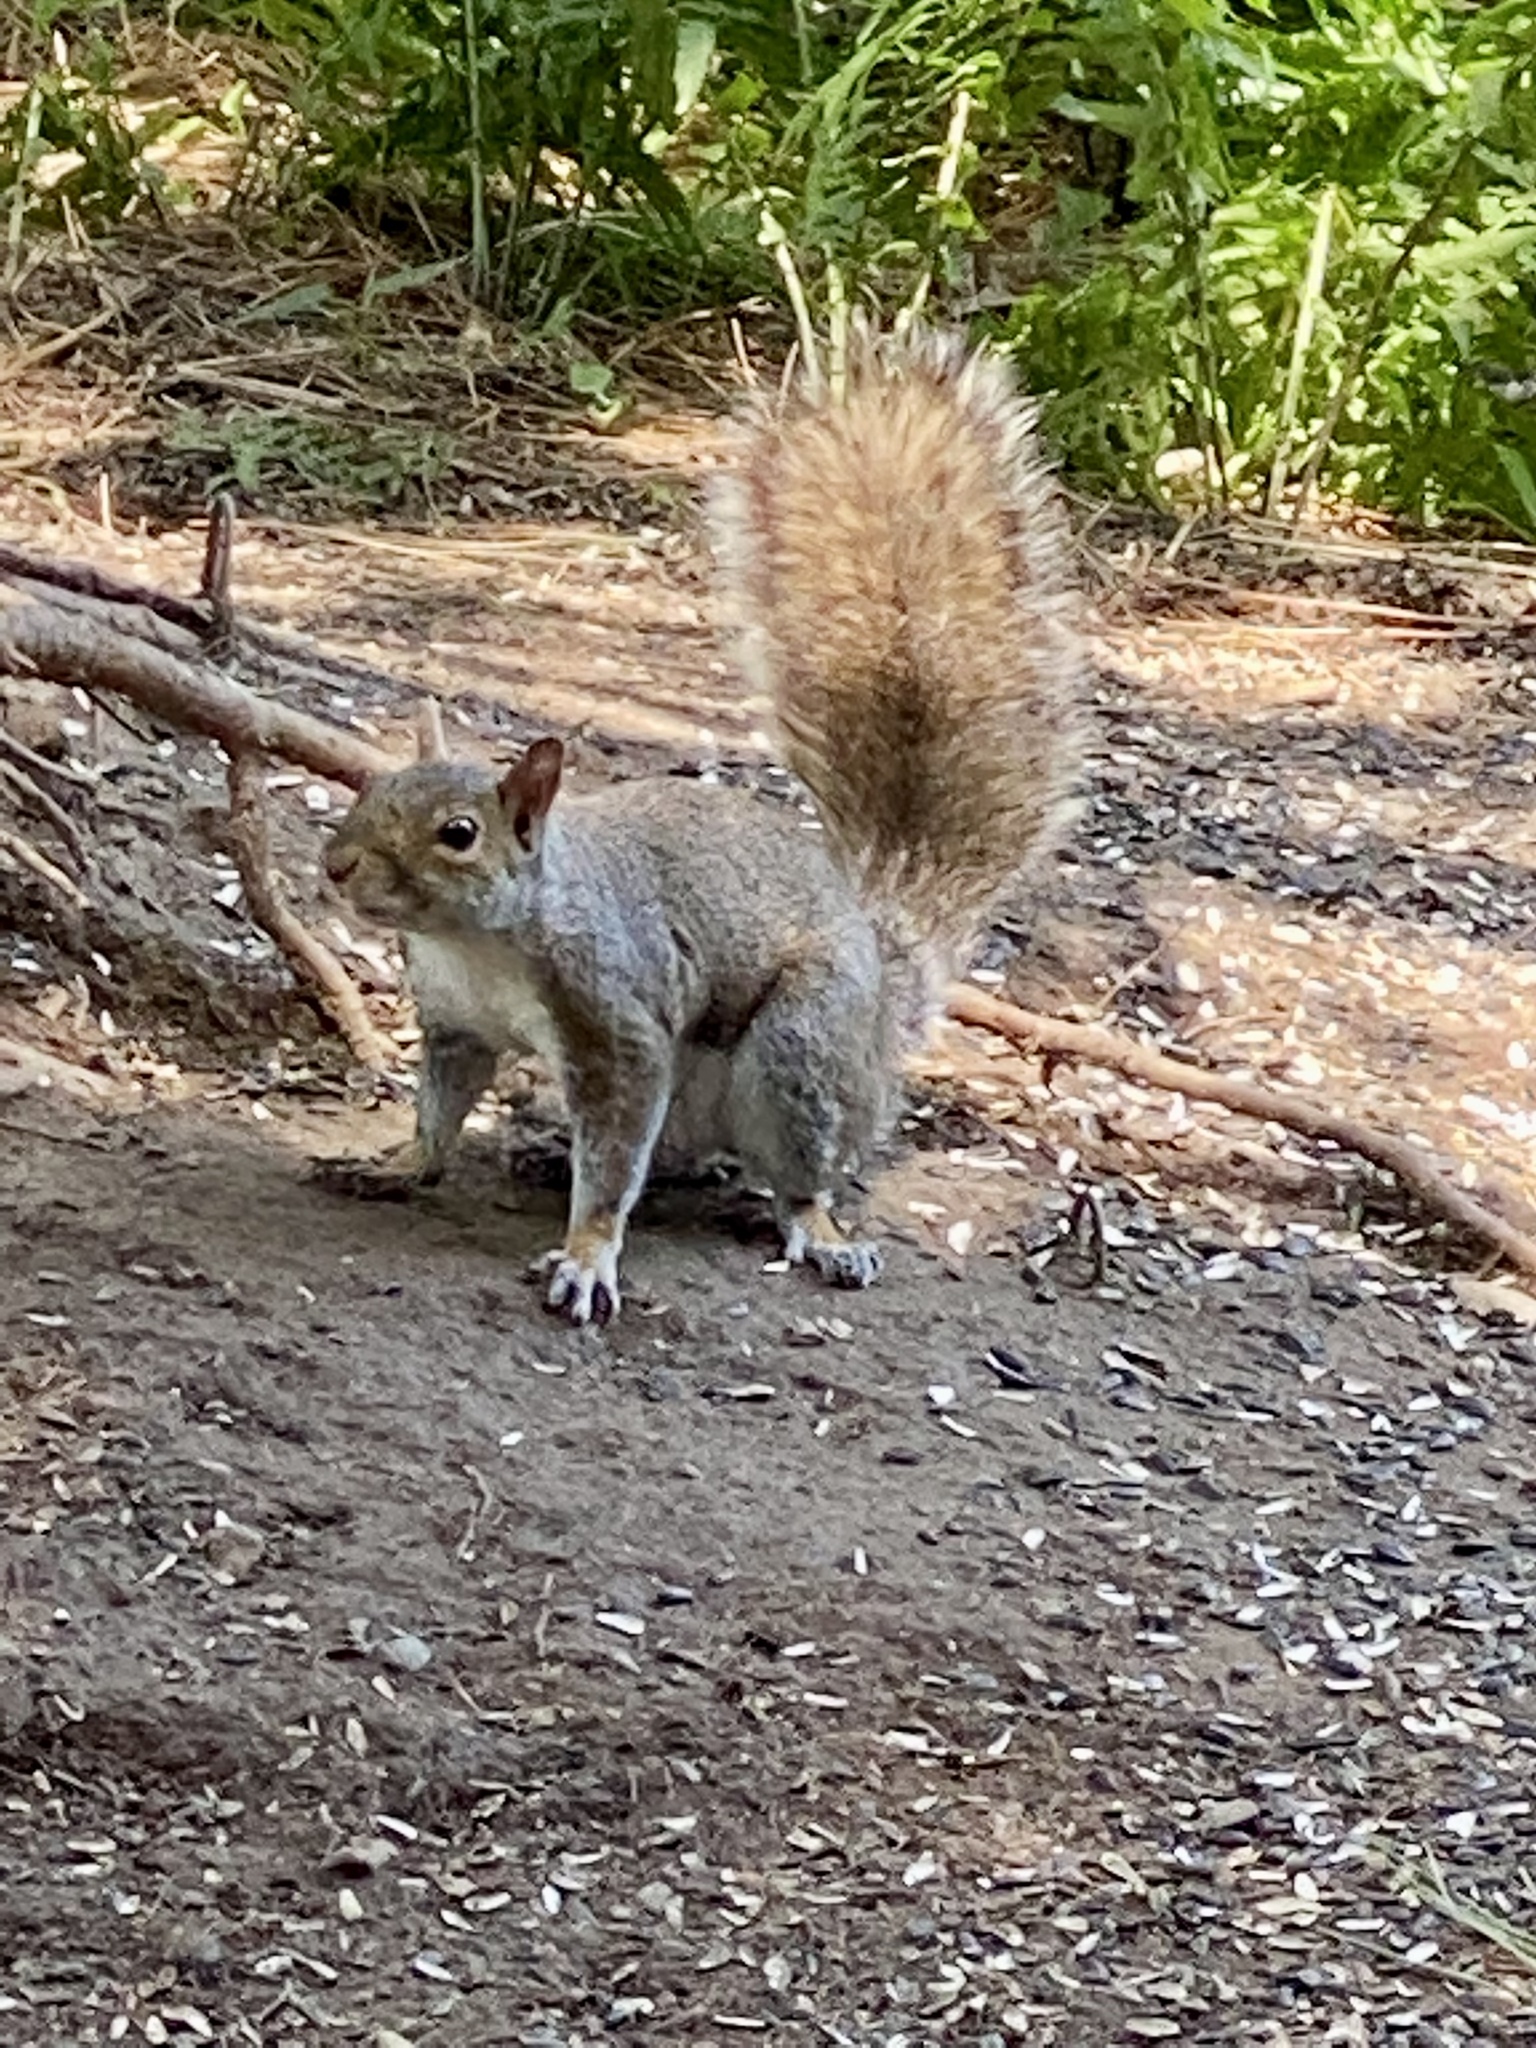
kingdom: Animalia
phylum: Chordata
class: Mammalia
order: Rodentia
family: Sciuridae
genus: Sciurus
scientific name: Sciurus carolinensis
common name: Eastern gray squirrel
